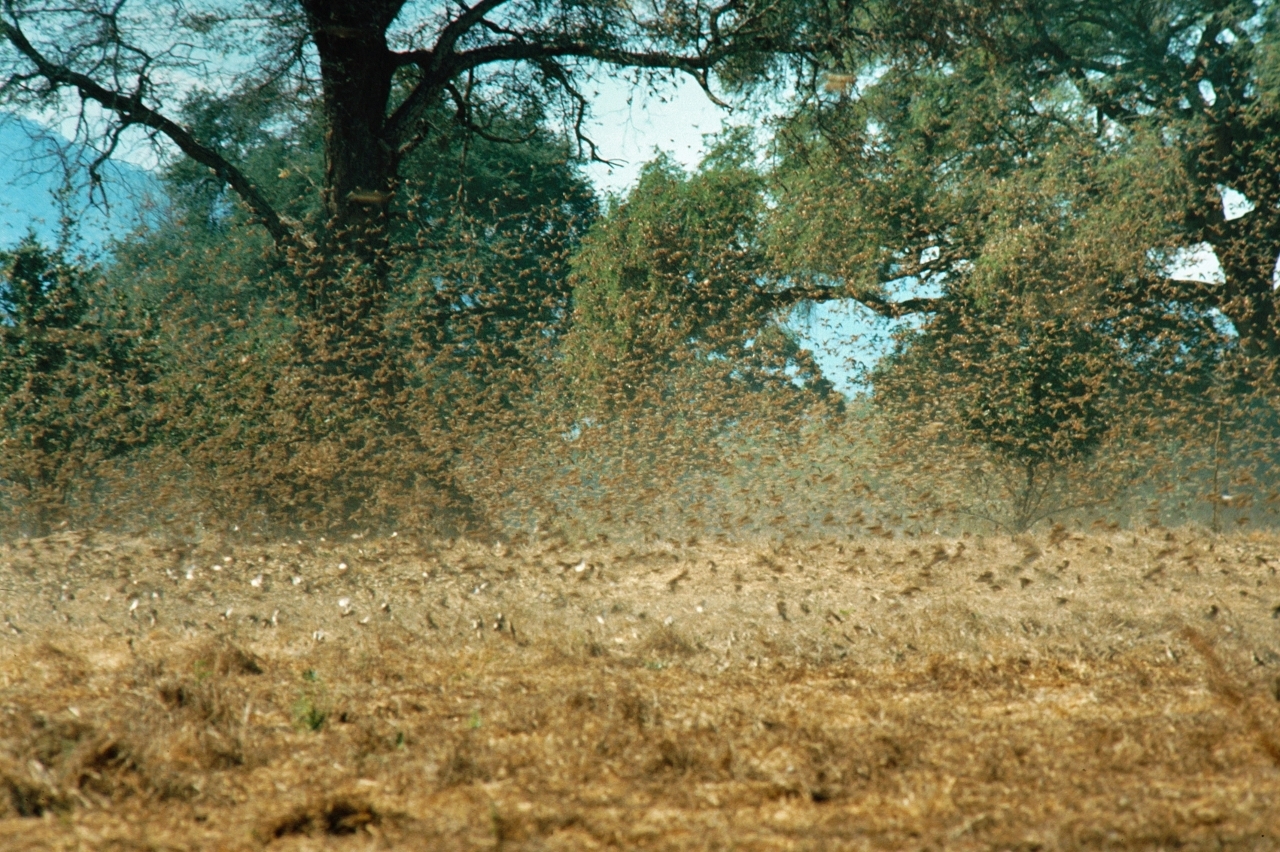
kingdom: Animalia
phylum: Chordata
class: Aves
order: Passeriformes
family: Ploceidae
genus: Quelea
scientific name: Quelea quelea
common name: Red-billed quelea
